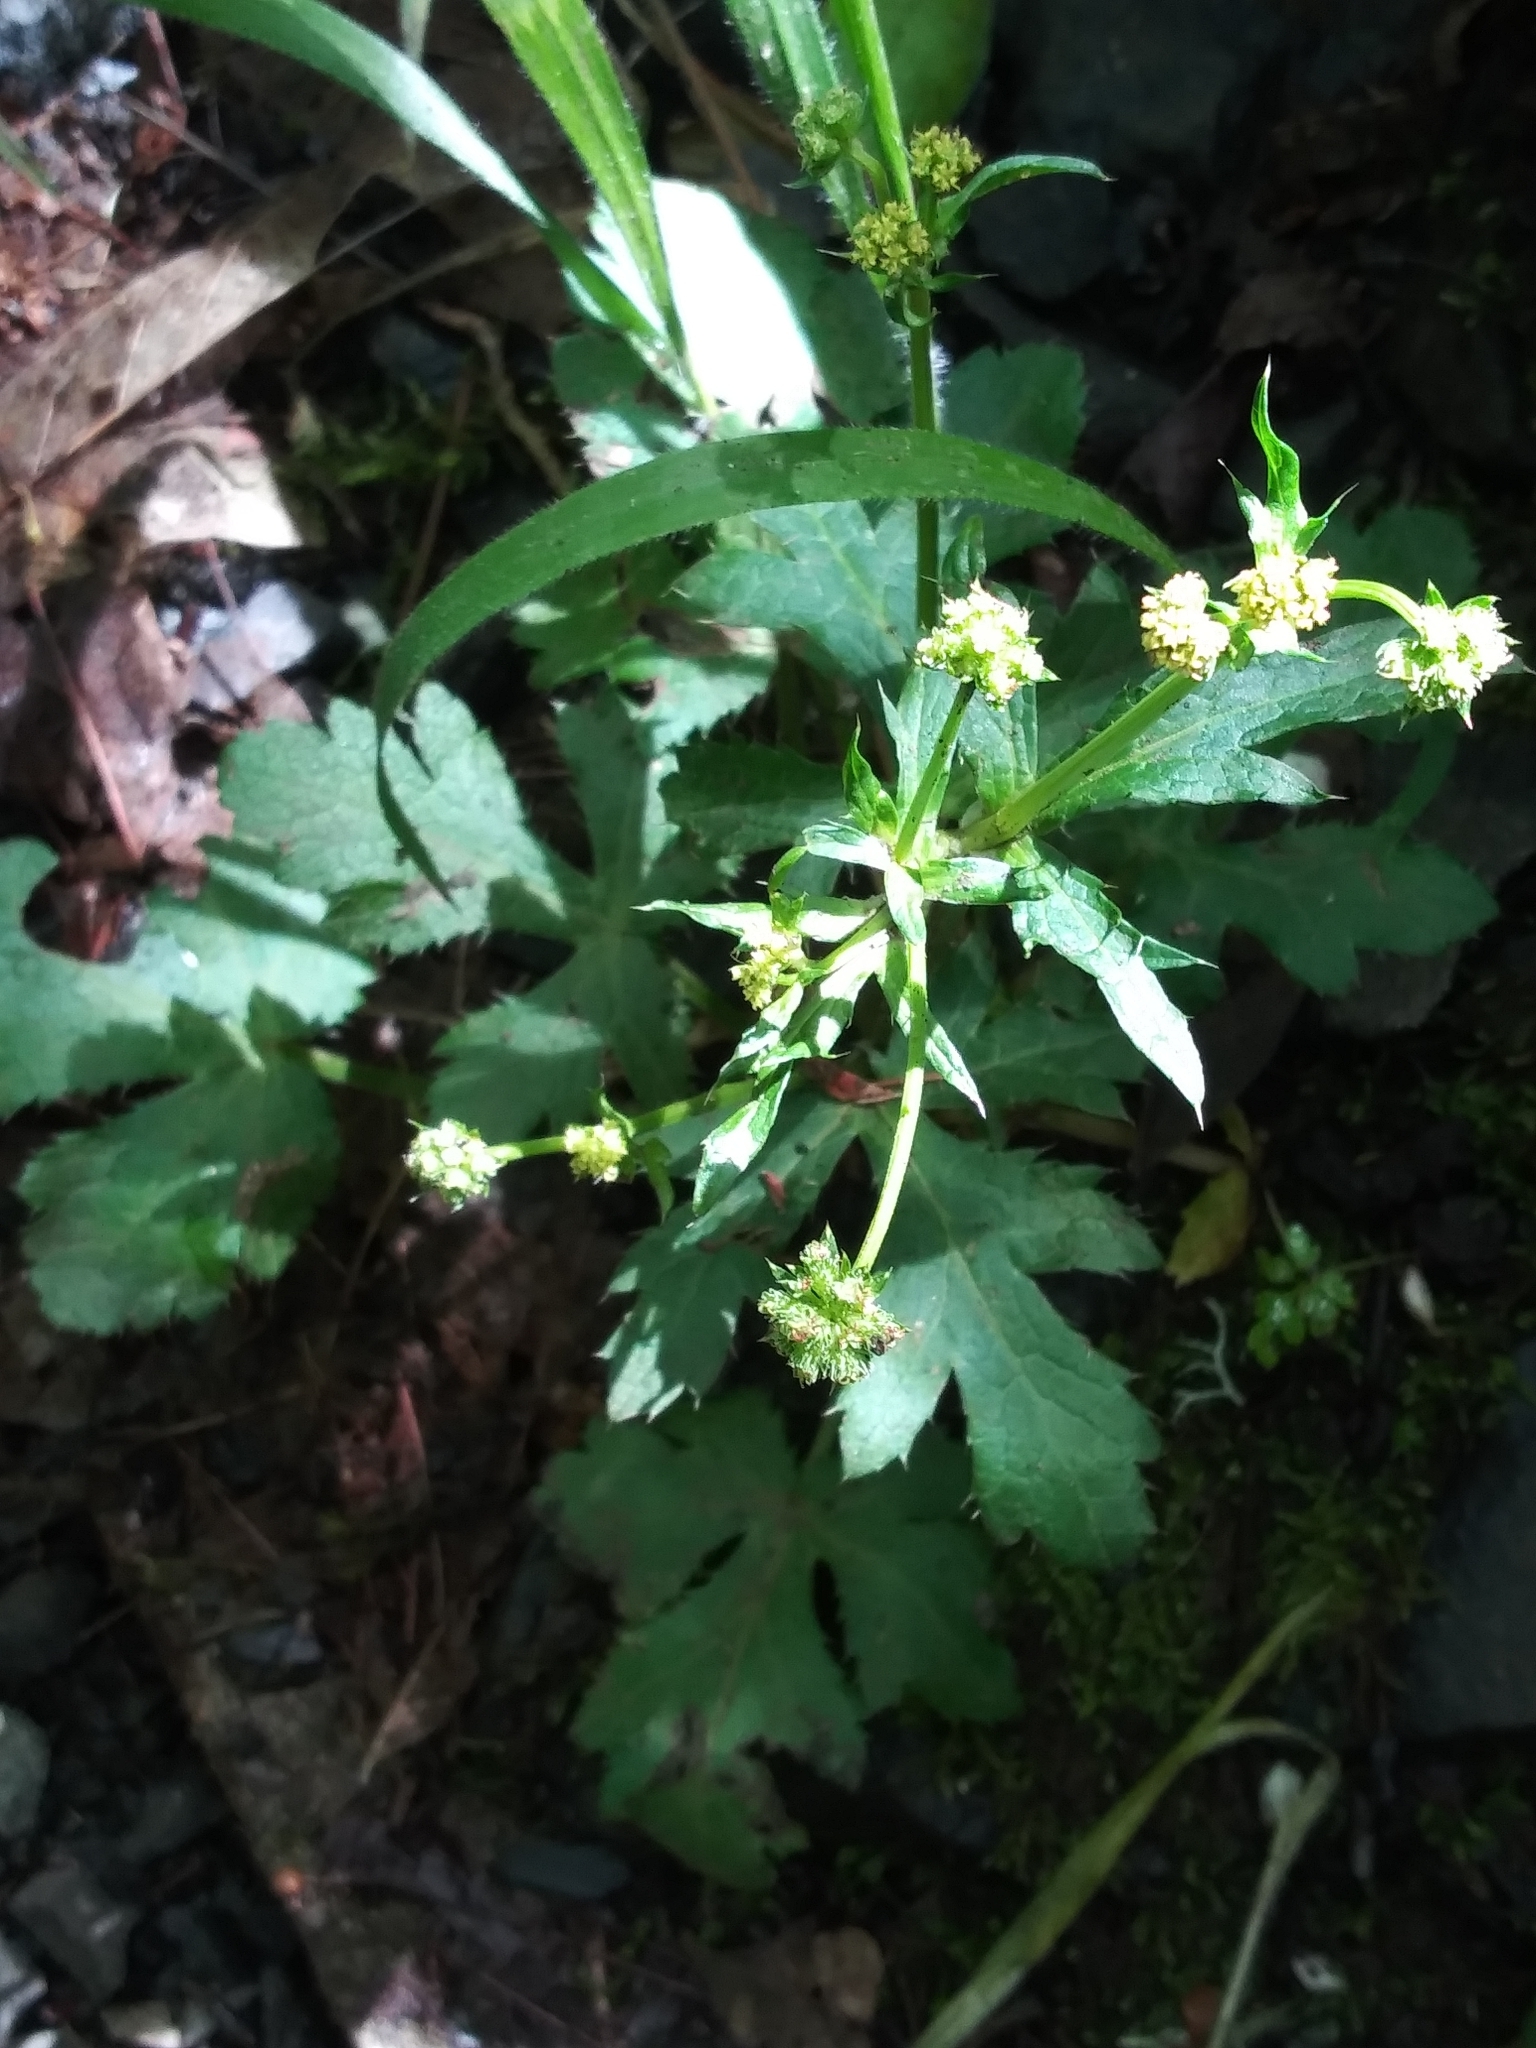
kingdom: Plantae
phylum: Tracheophyta
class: Magnoliopsida
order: Apiales
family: Apiaceae
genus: Sanicula
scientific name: Sanicula crassicaulis
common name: Western snakeroot
